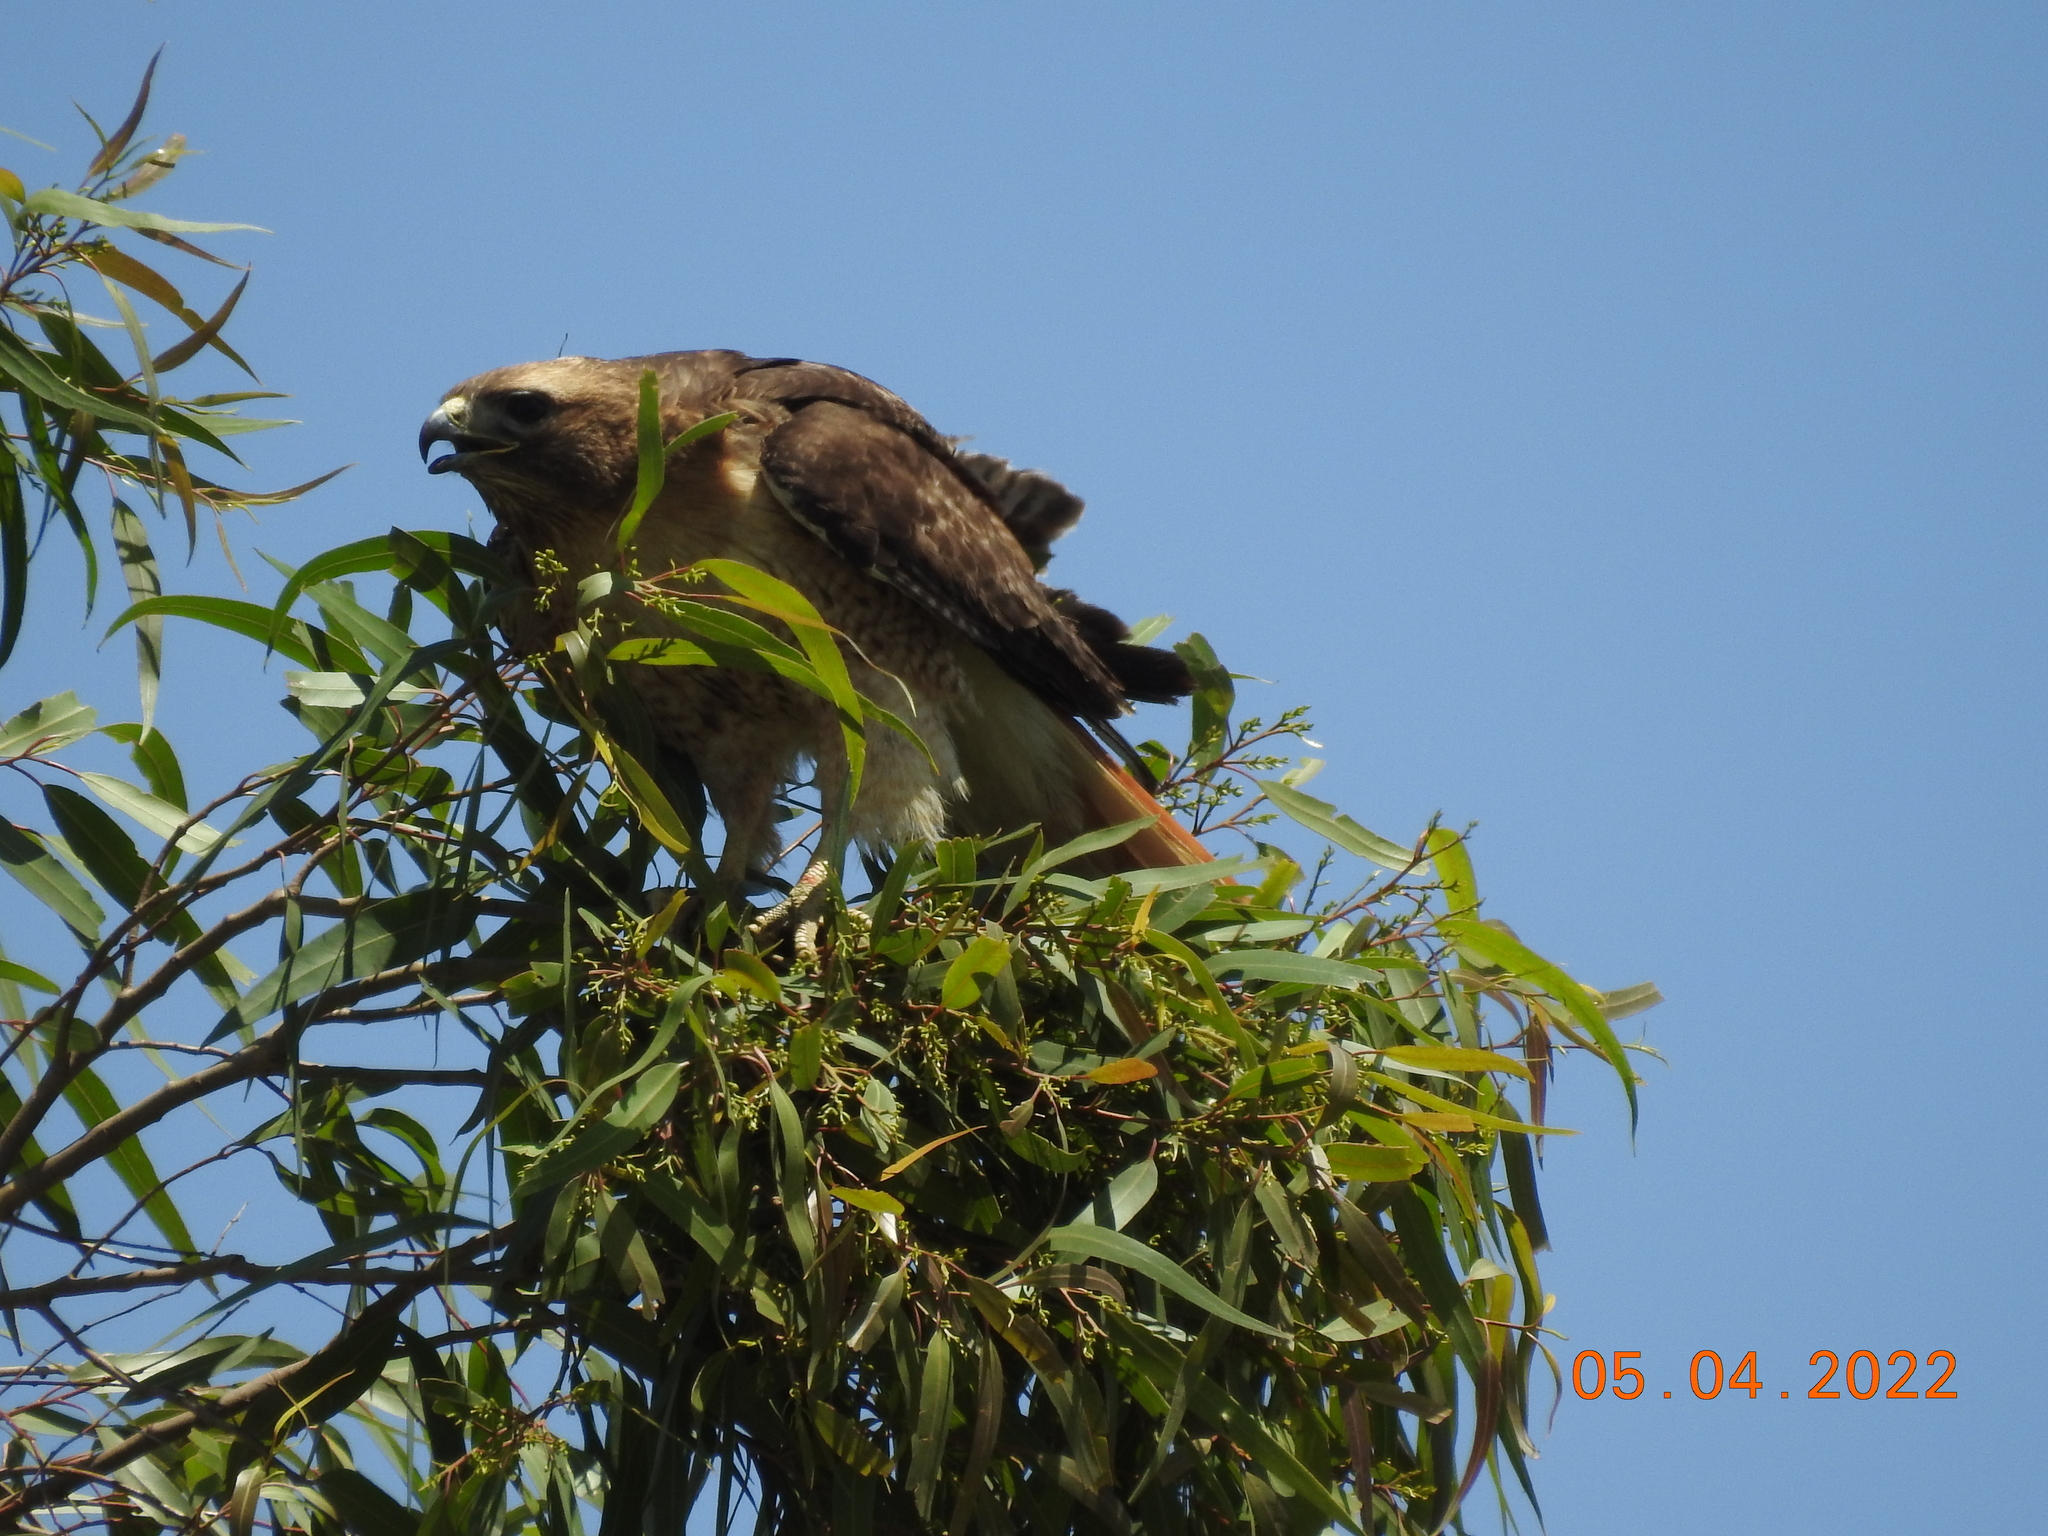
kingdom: Animalia
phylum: Chordata
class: Aves
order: Accipitriformes
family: Accipitridae
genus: Buteo
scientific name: Buteo jamaicensis
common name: Red-tailed hawk
